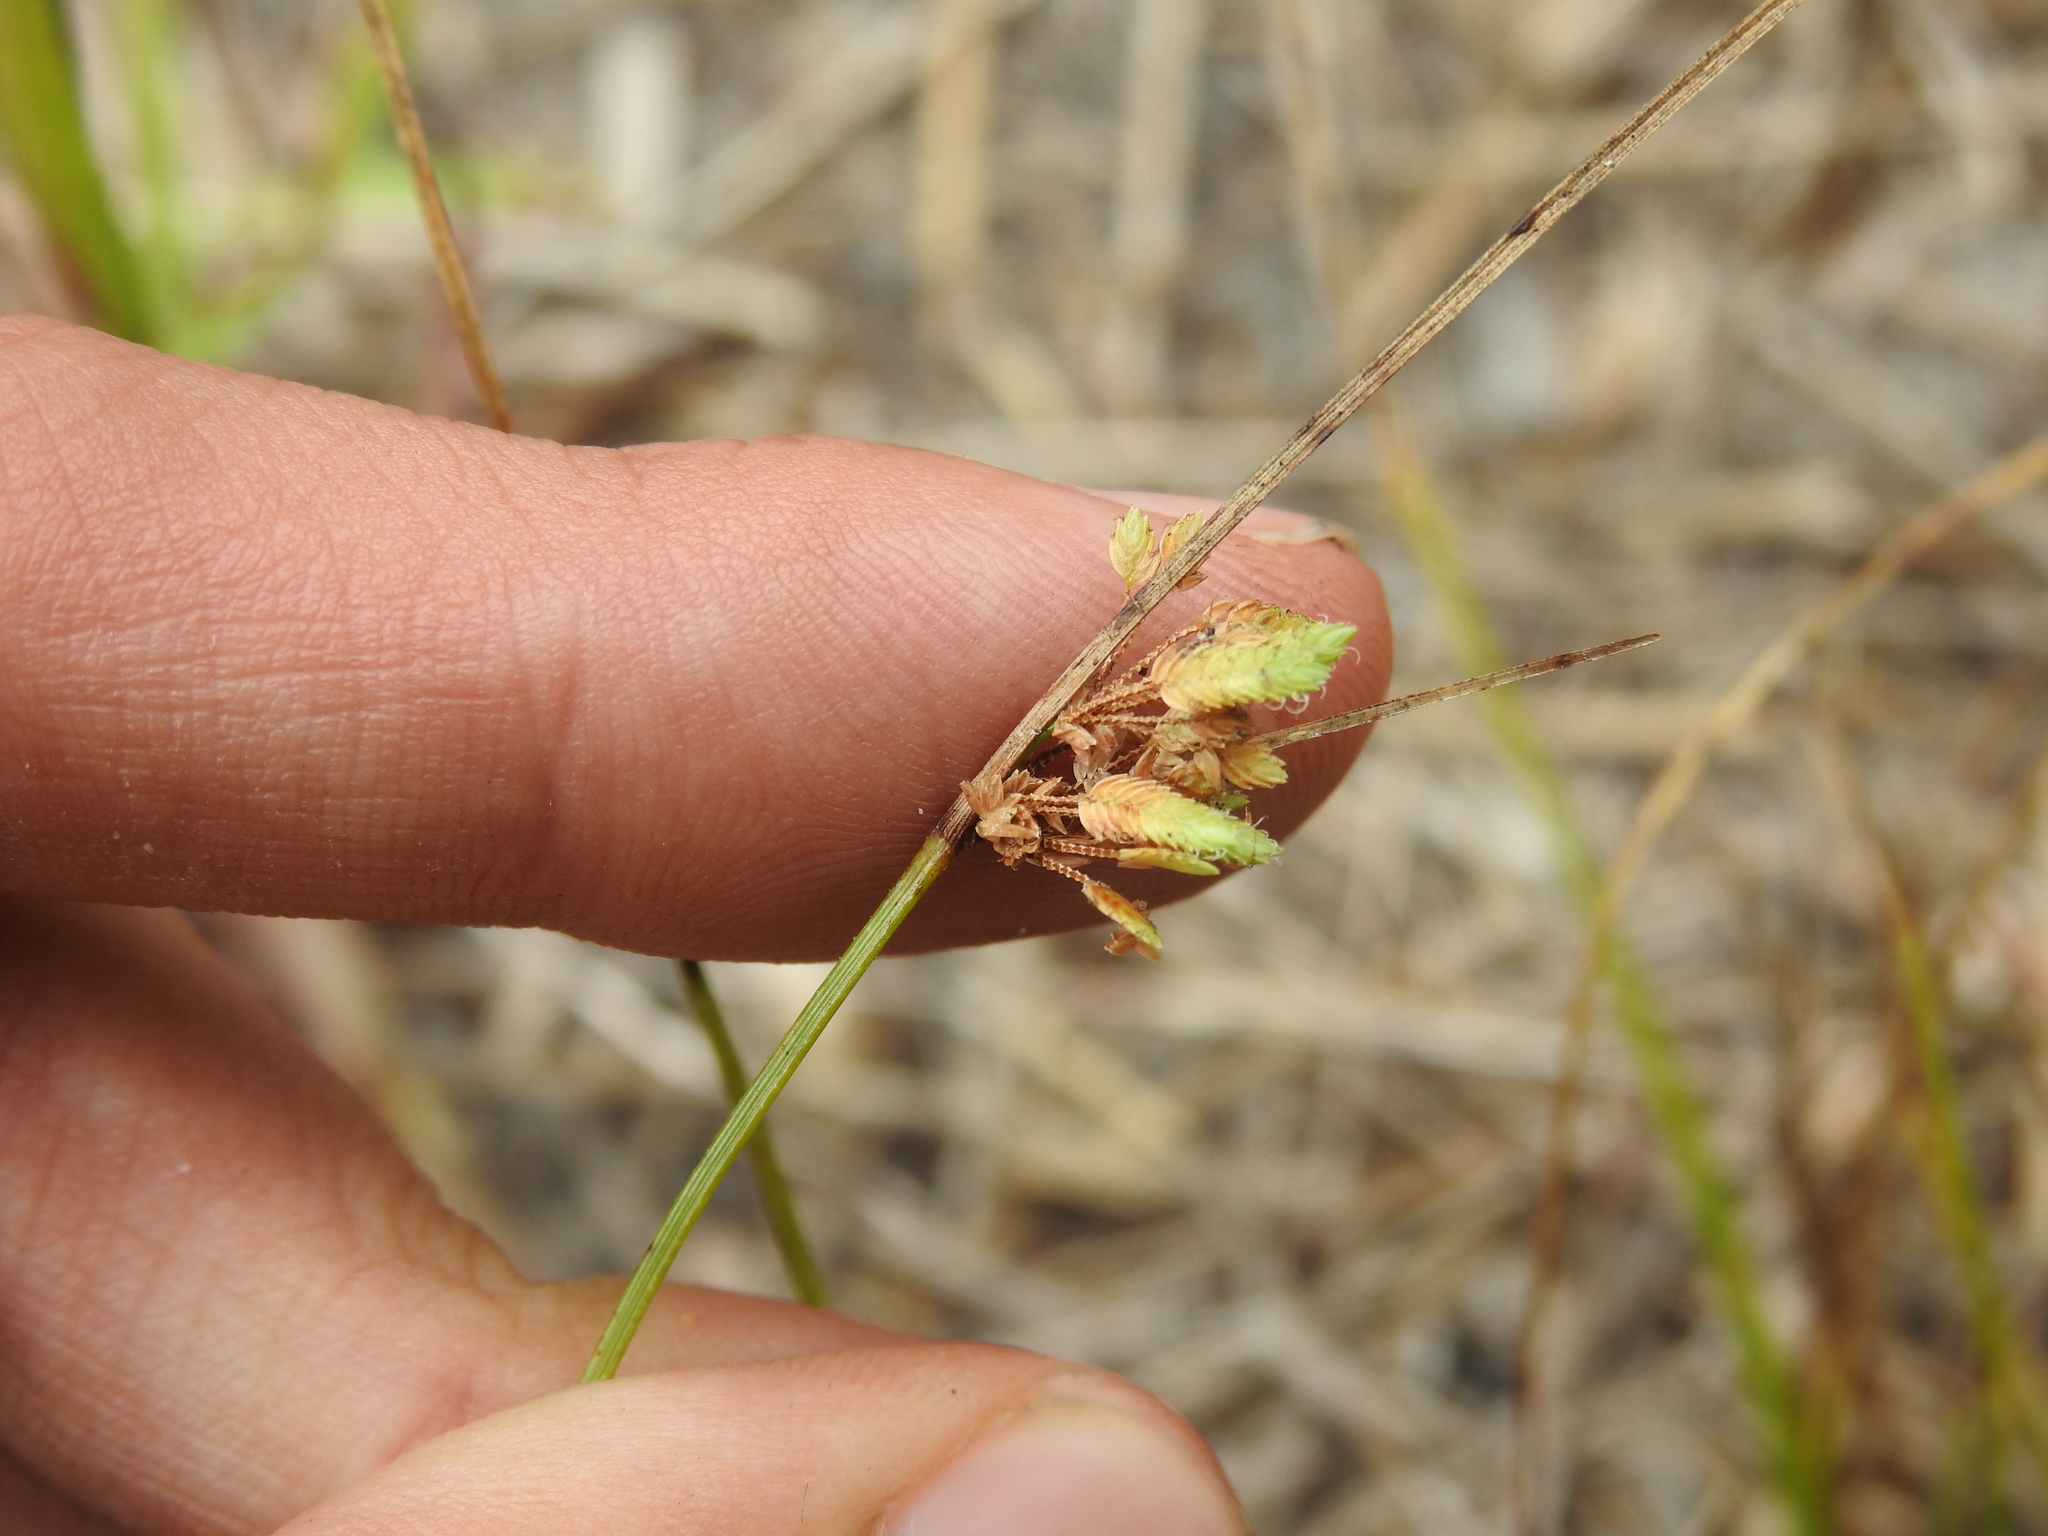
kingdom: Plantae
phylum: Tracheophyta
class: Liliopsida
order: Poales
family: Cyperaceae
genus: Cyperus
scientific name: Cyperus surinamensis
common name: Tropical flat sedge
